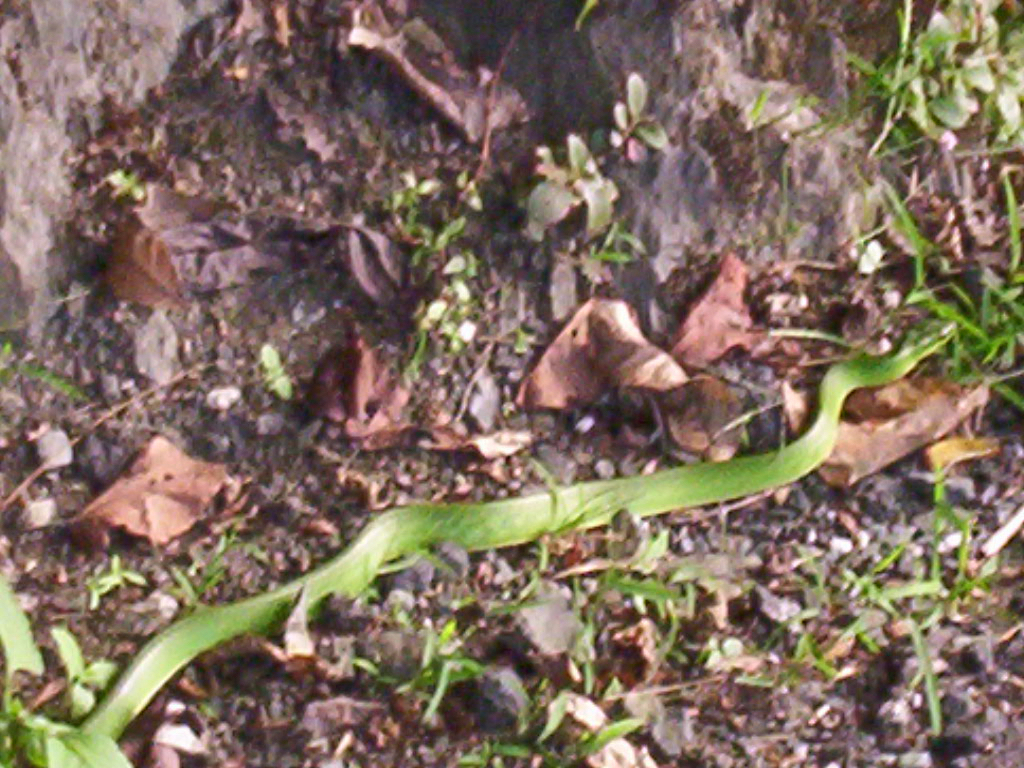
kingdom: Animalia
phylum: Chordata
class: Squamata
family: Colubridae
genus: Ahaetulla
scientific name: Ahaetulla oxyrhyncha
